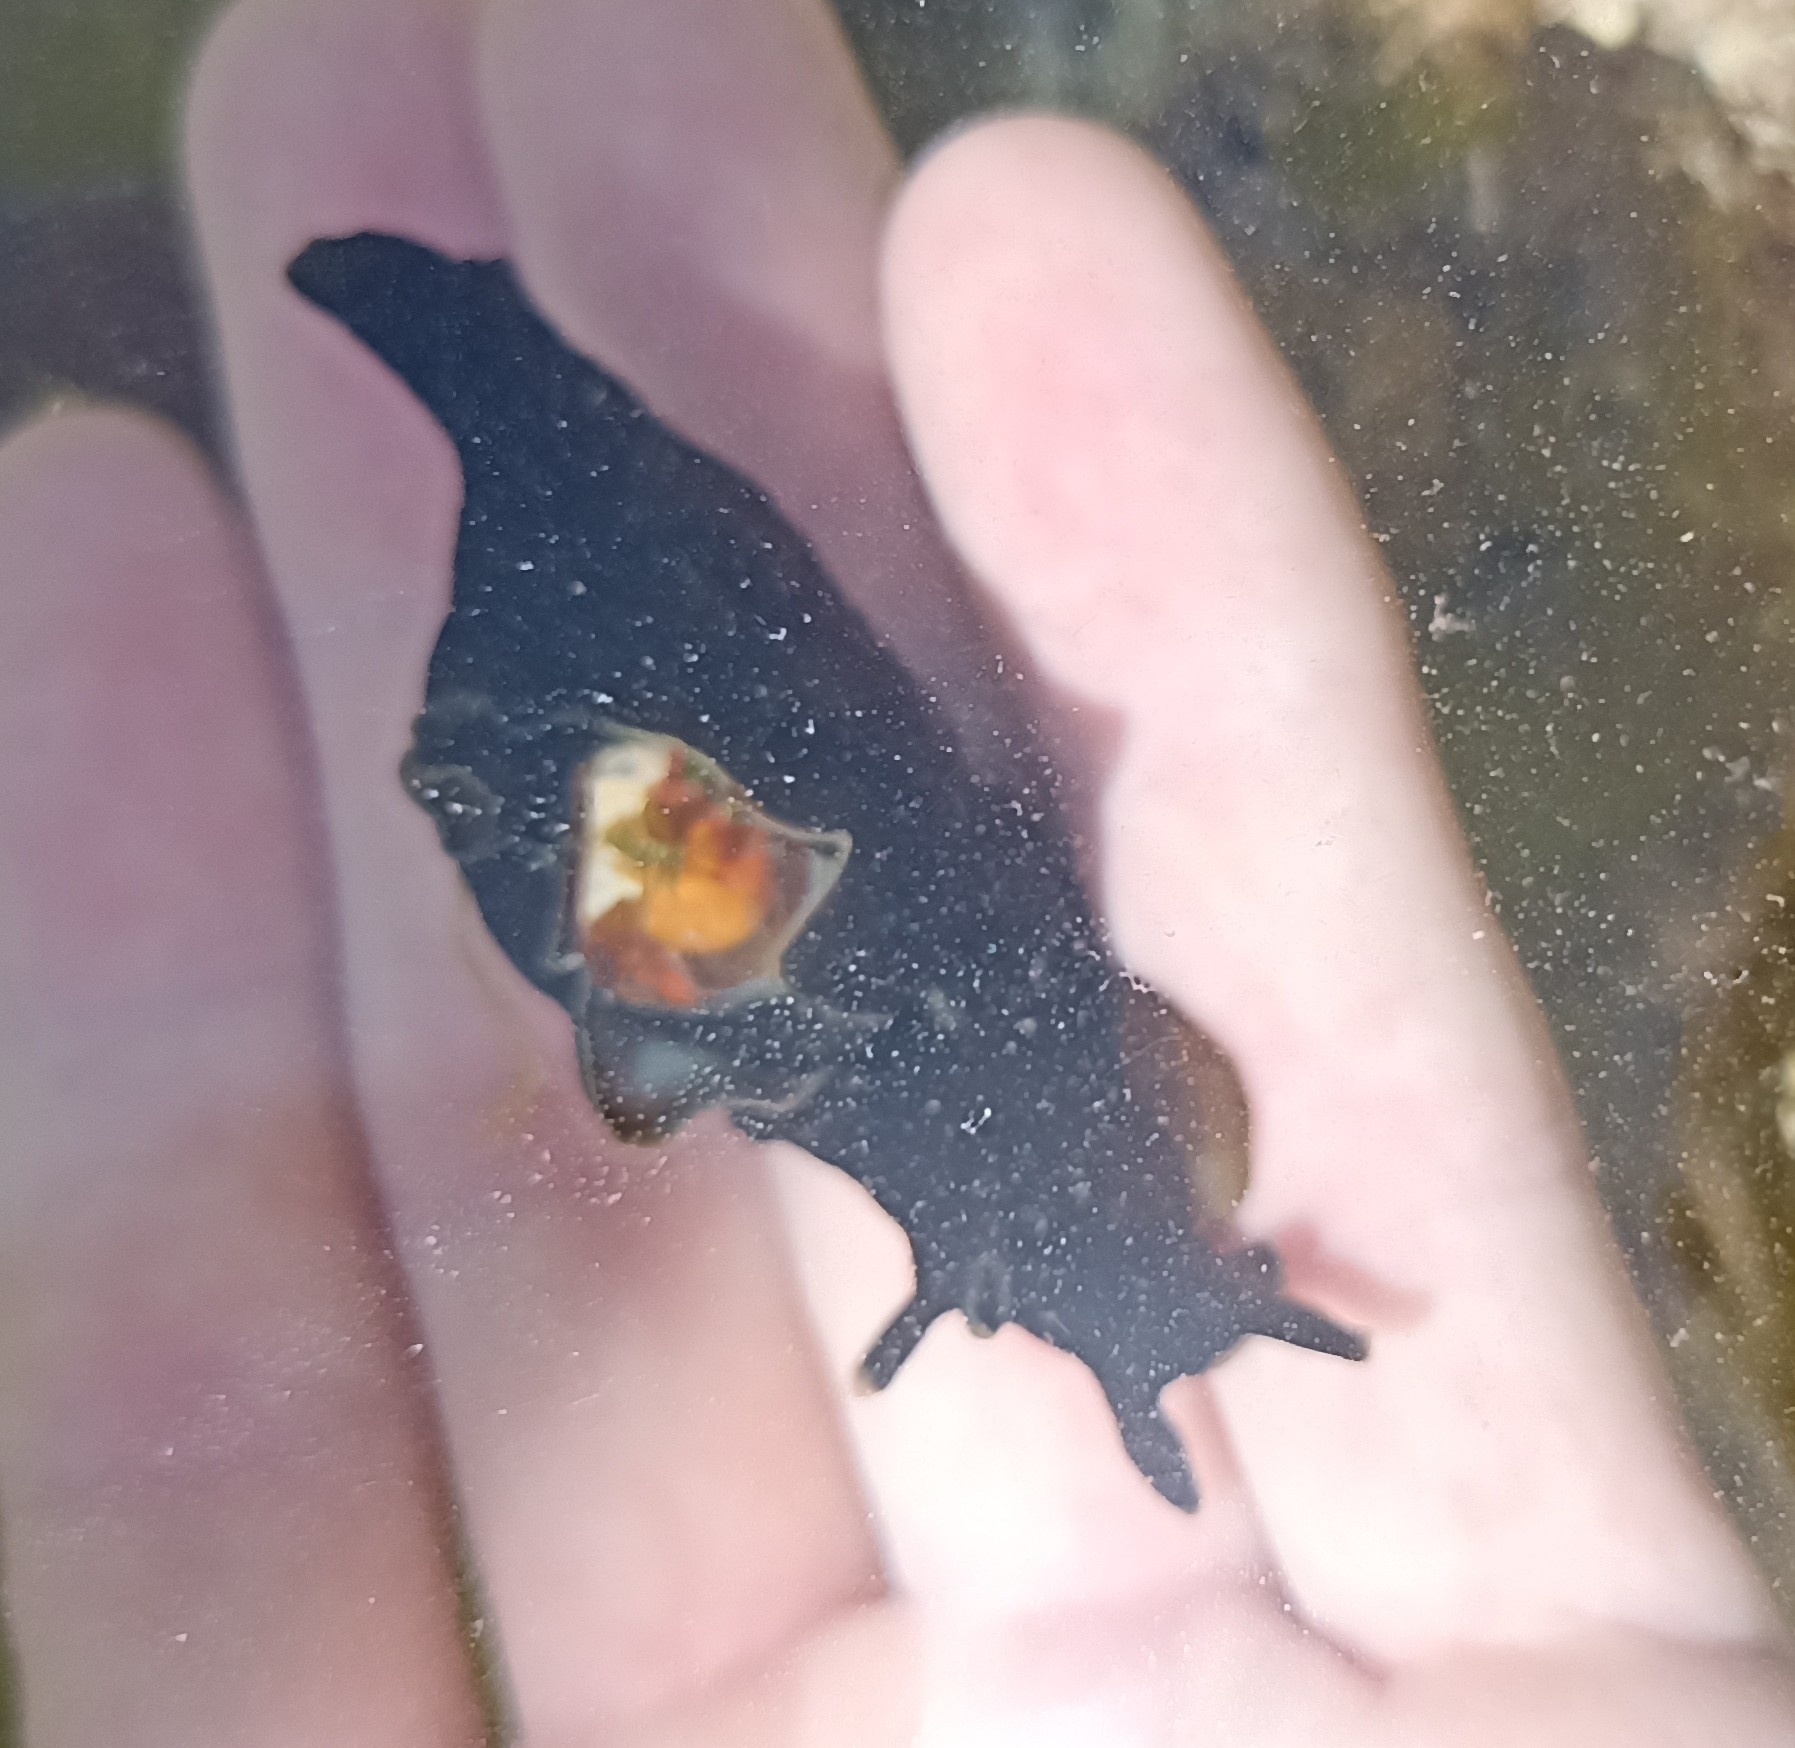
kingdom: Animalia
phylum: Mollusca
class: Gastropoda
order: Aplysiida
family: Aplysiidae
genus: Aplysia
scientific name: Aplysia punctata
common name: Common sea hare
